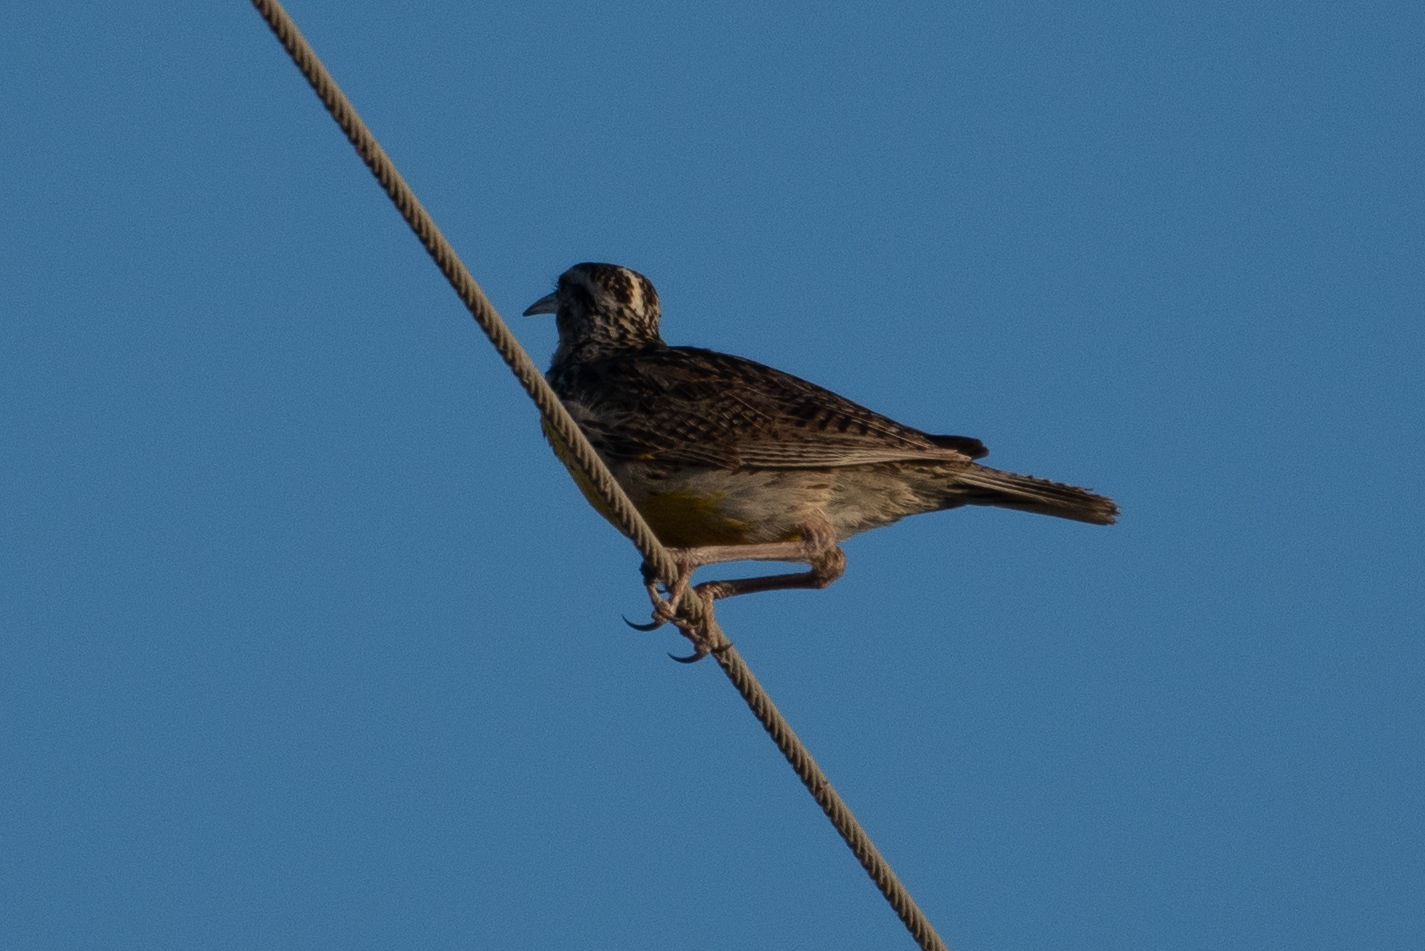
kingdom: Animalia
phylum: Chordata
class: Aves
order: Passeriformes
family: Icteridae
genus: Sturnella
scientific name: Sturnella neglecta
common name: Western meadowlark
